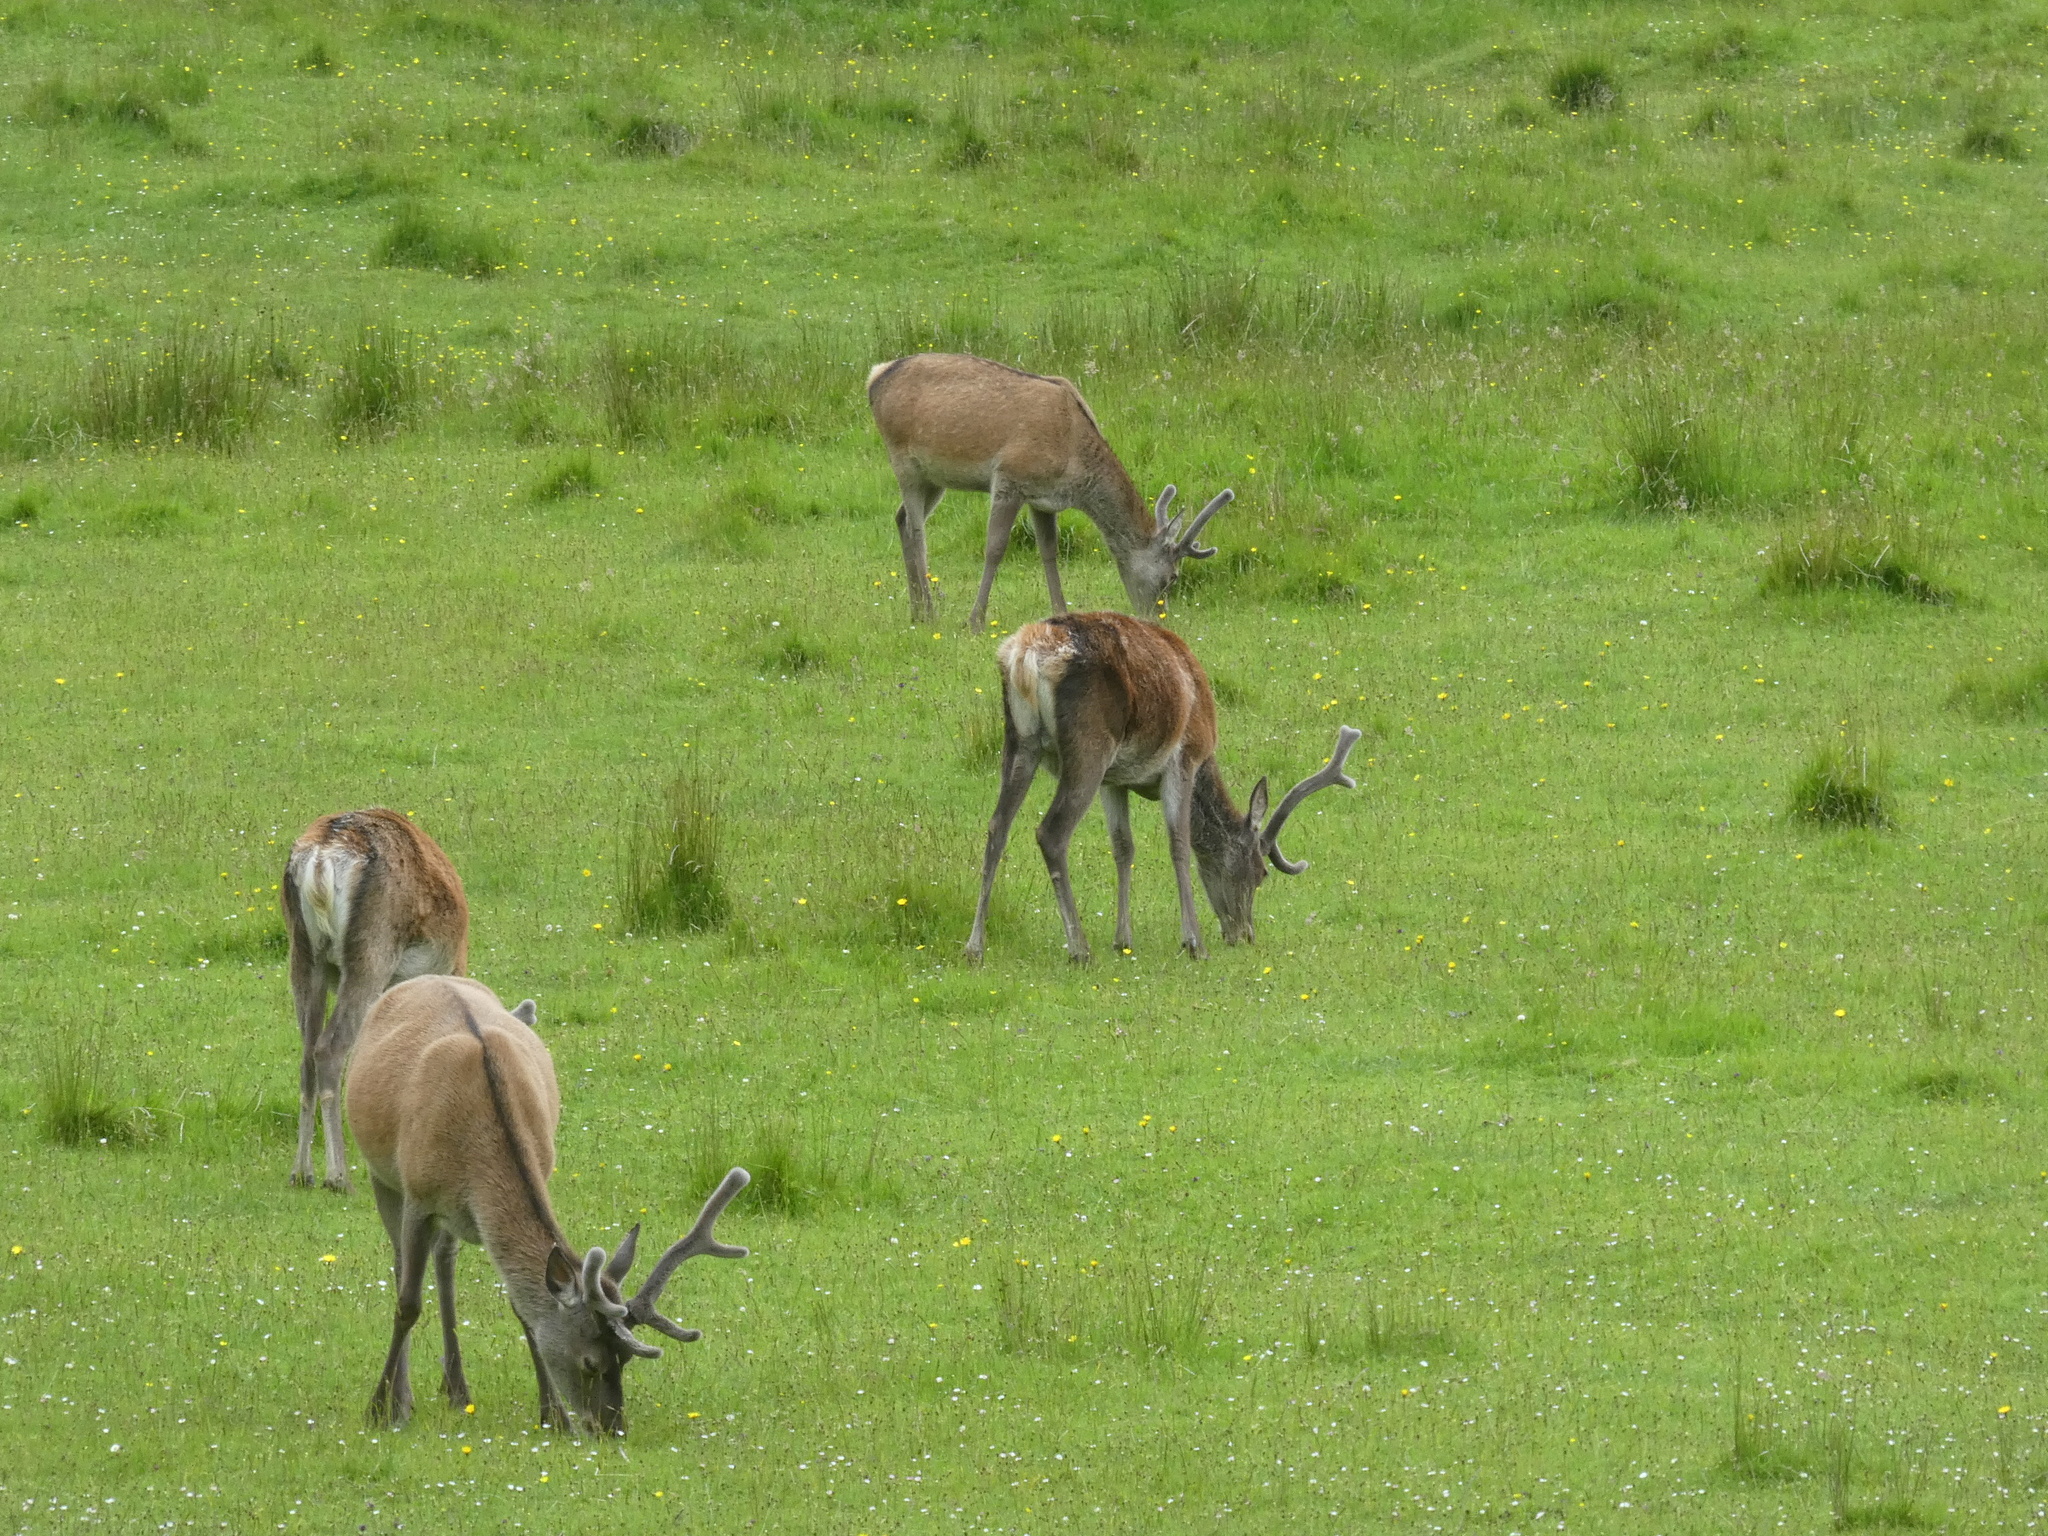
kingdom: Animalia
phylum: Chordata
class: Mammalia
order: Artiodactyla
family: Cervidae
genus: Cervus
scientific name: Cervus elaphus
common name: Red deer
